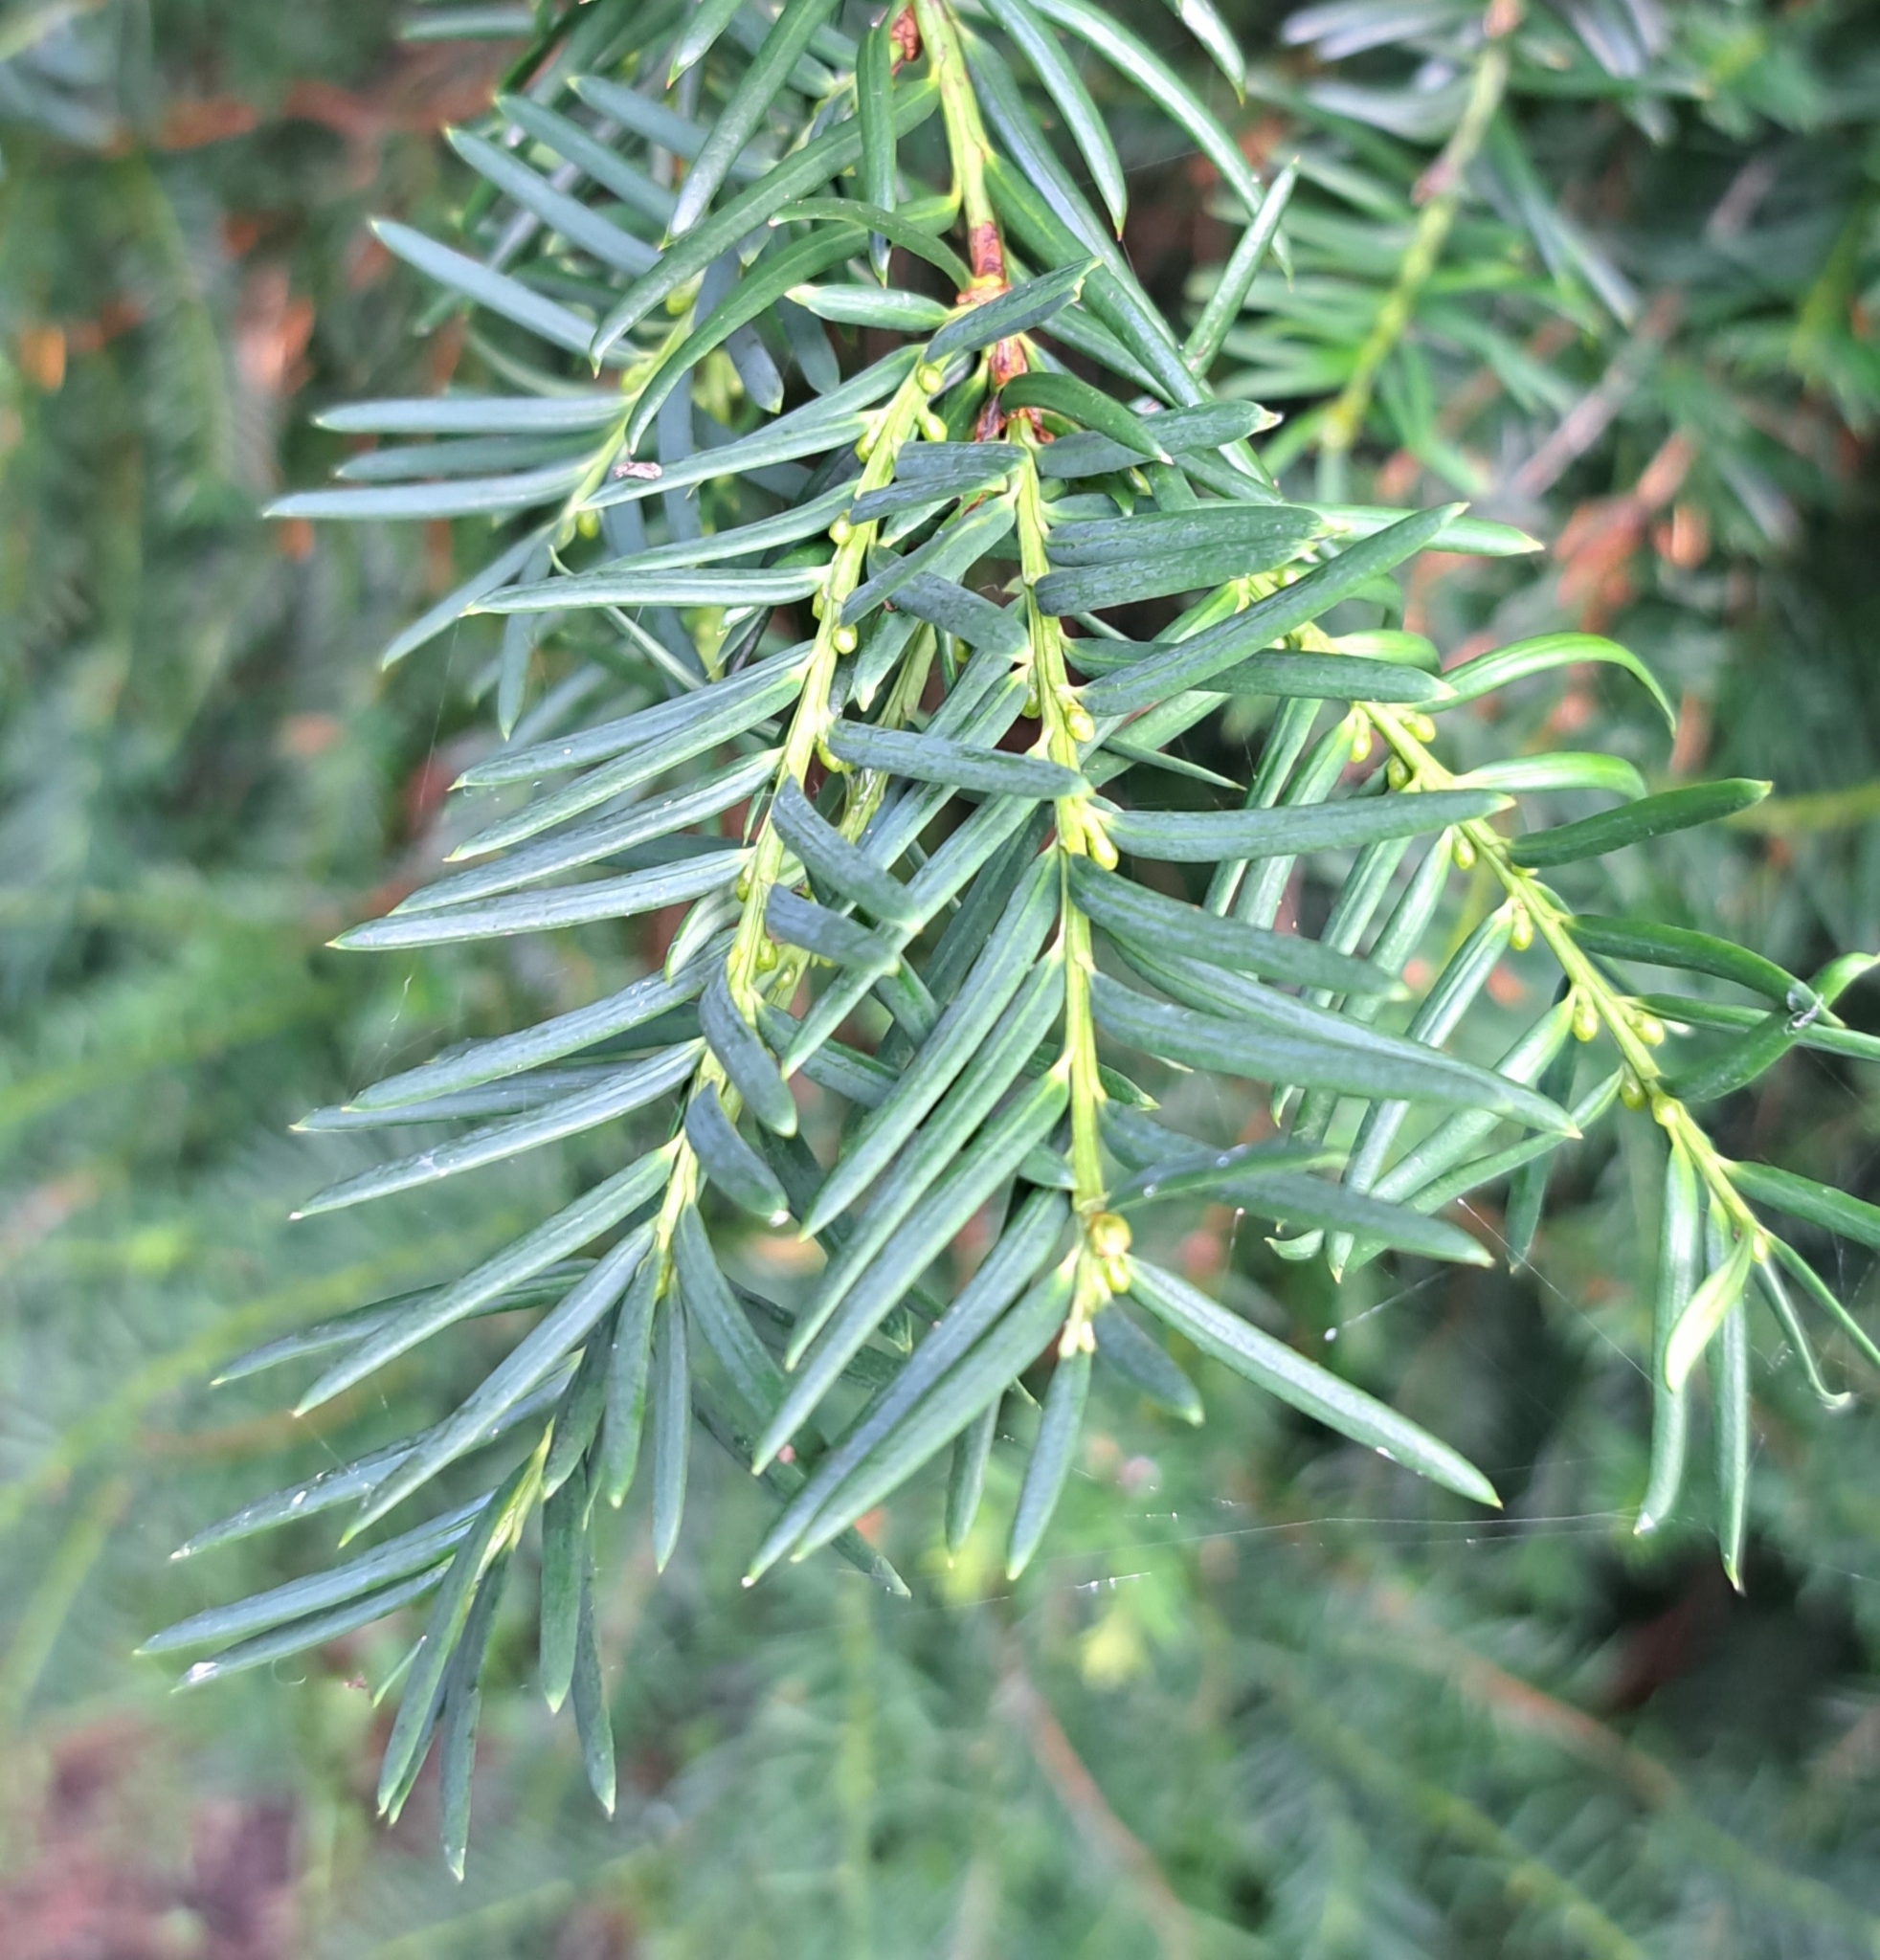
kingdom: Plantae
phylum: Tracheophyta
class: Pinopsida
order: Pinales
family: Taxaceae
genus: Taxus
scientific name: Taxus baccata
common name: Yew
